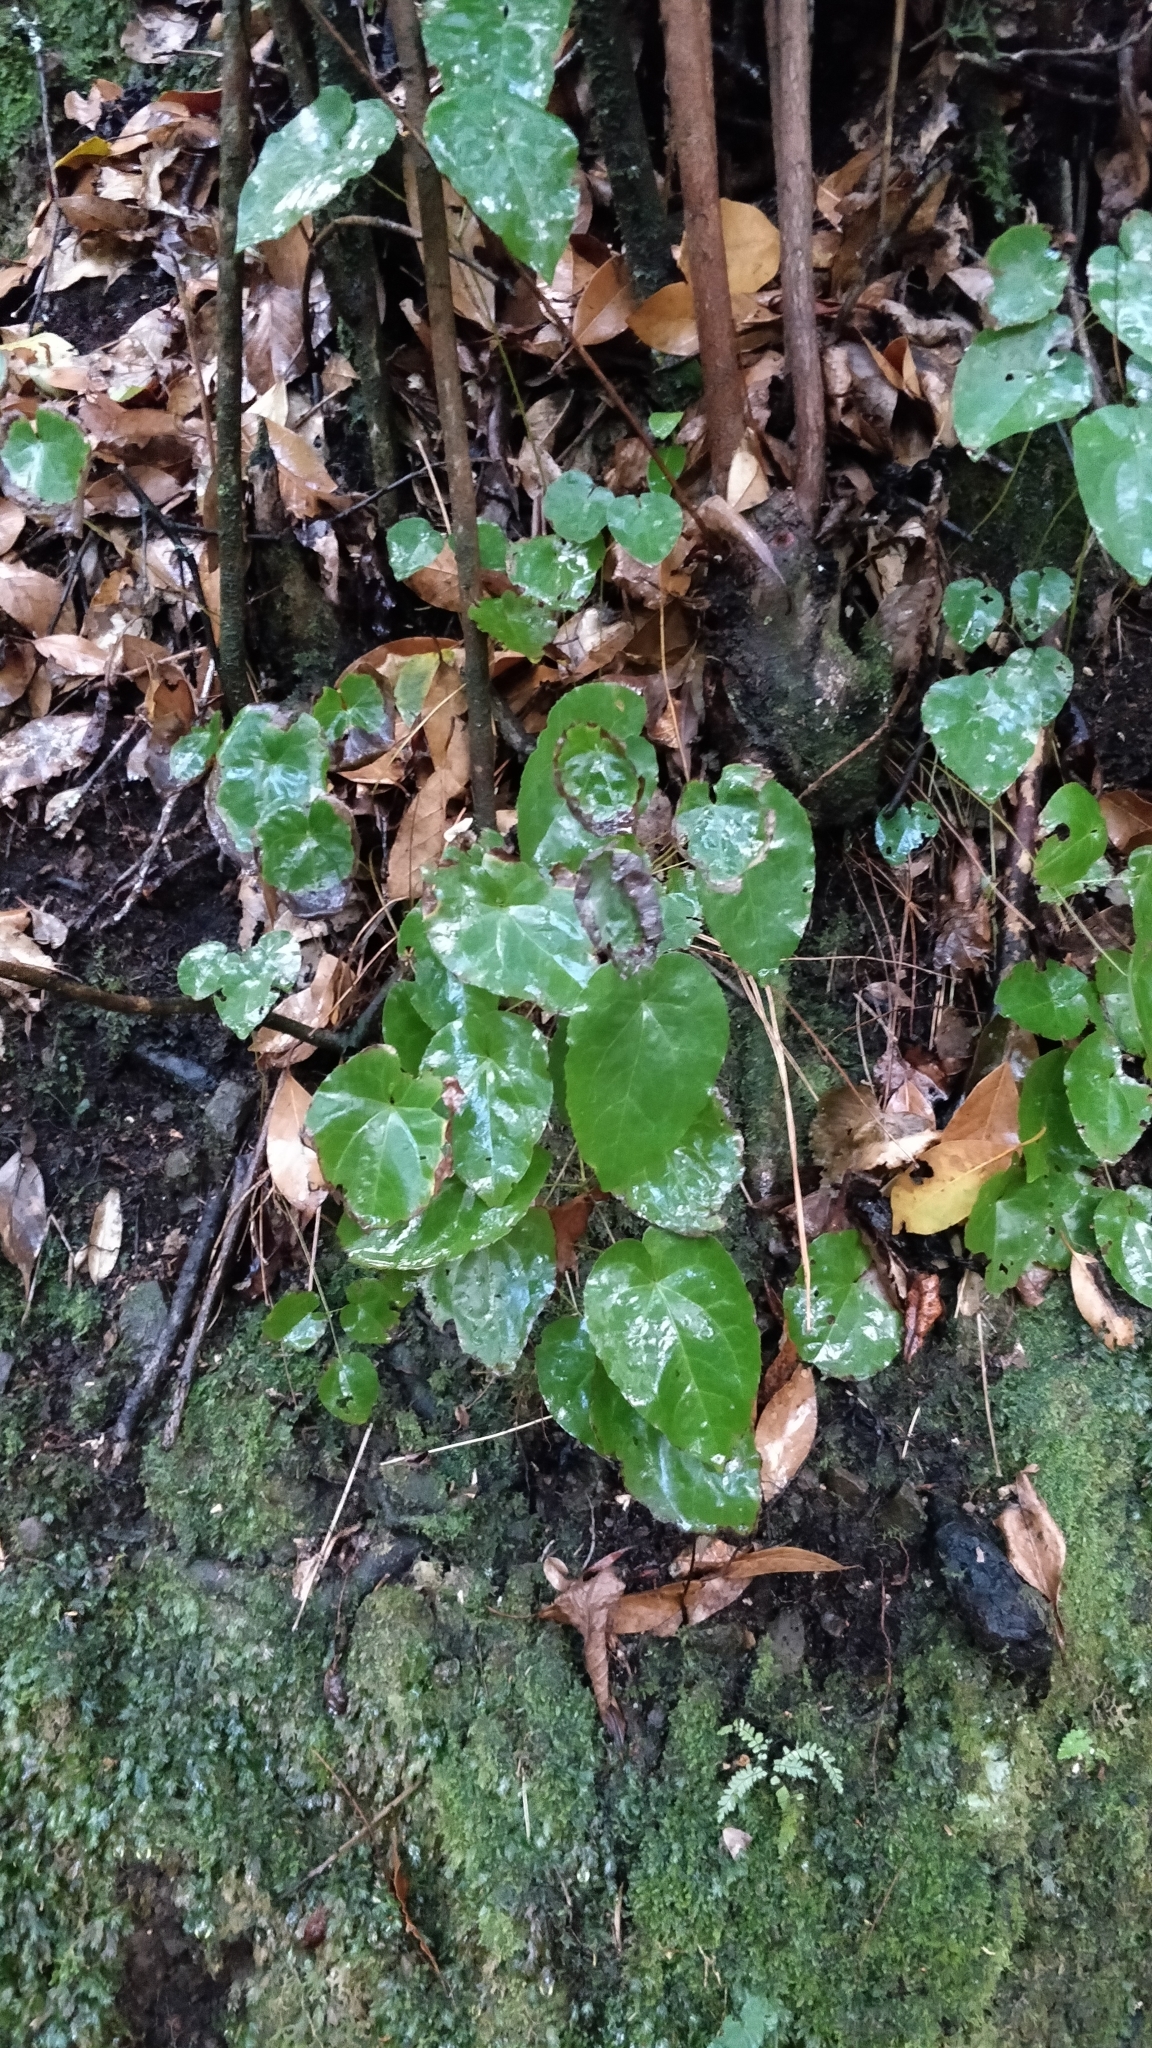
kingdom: Plantae
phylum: Tracheophyta
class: Magnoliopsida
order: Apiales
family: Araliaceae
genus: Hedera
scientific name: Hedera maderensis
